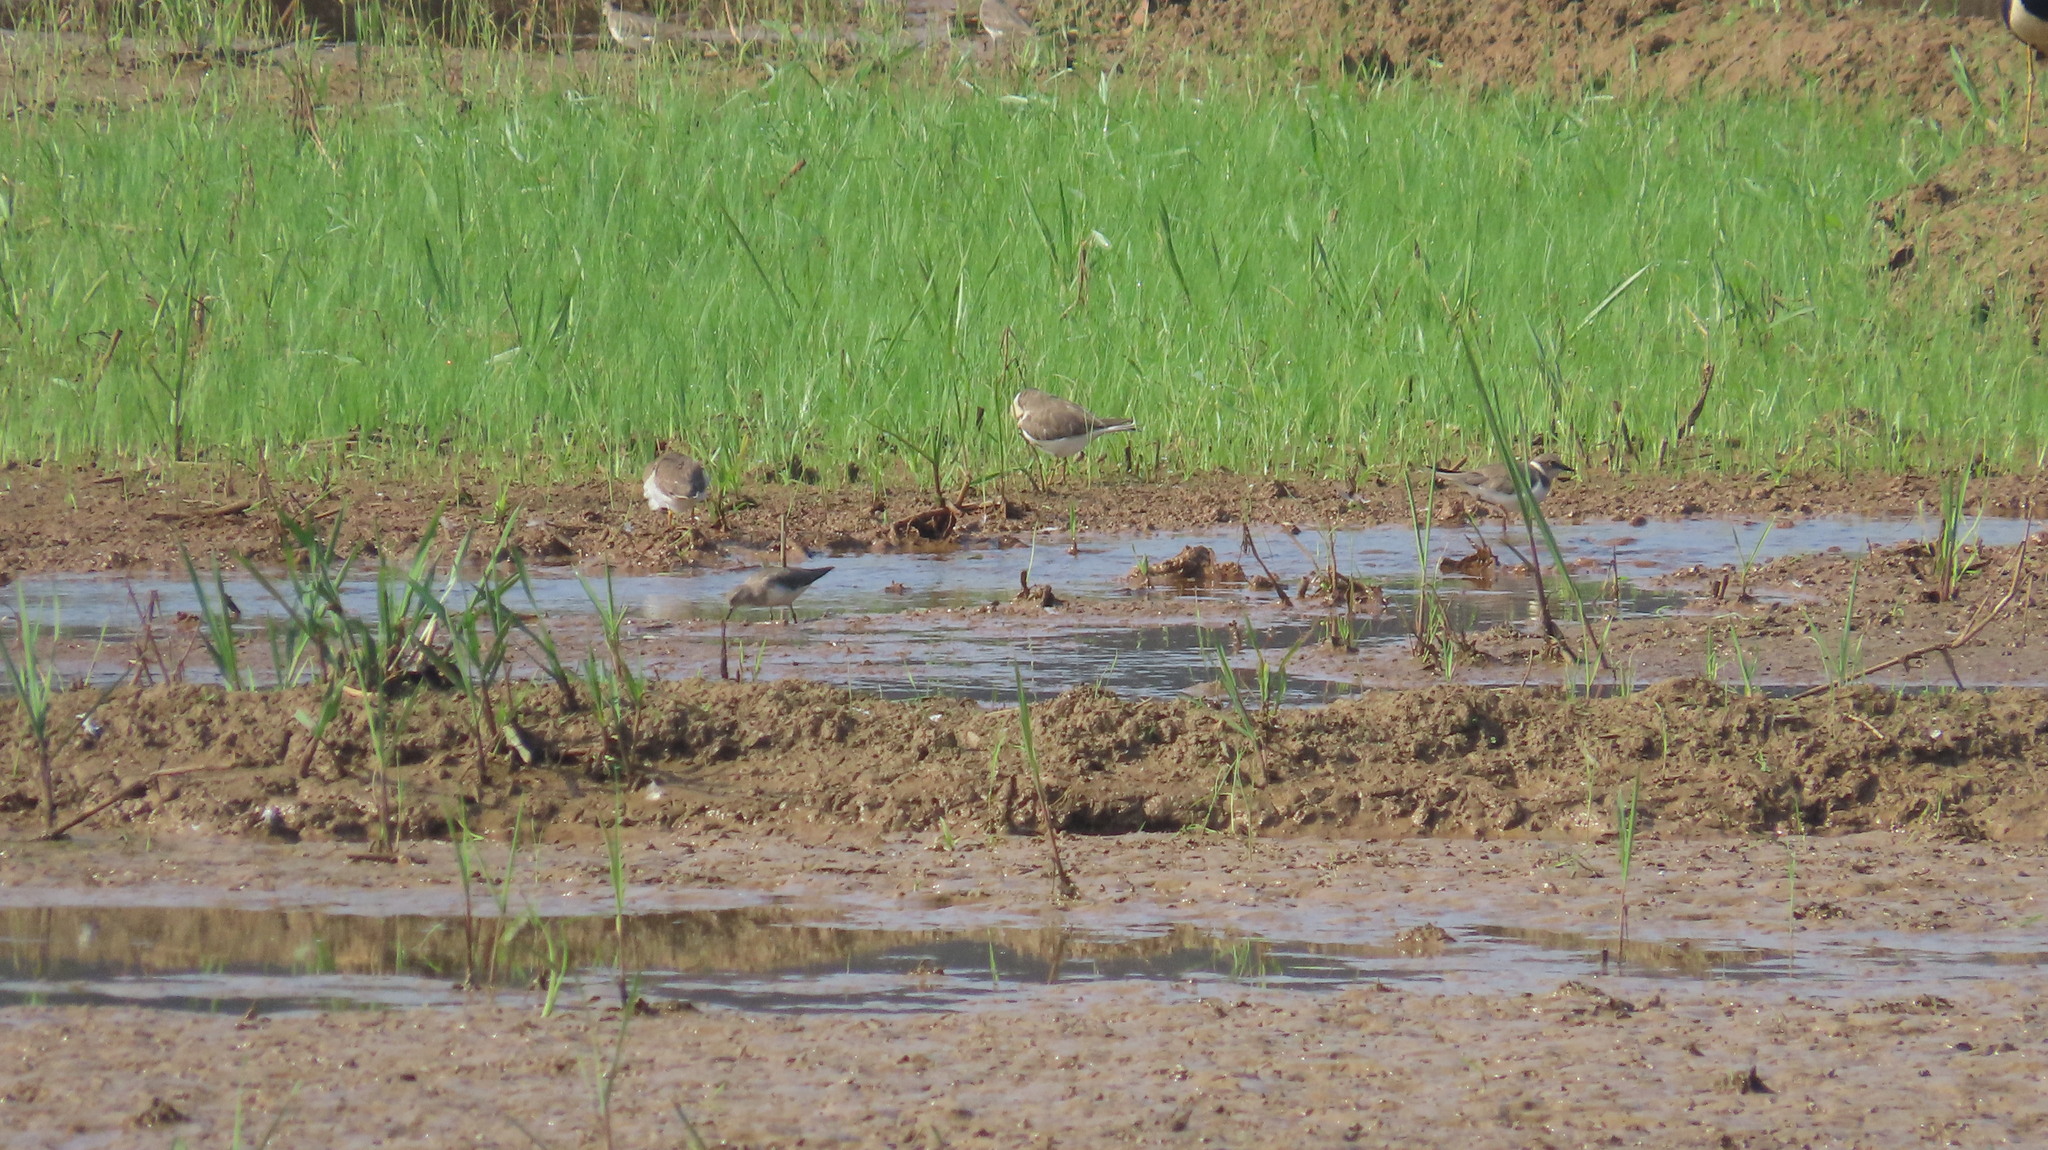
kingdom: Animalia
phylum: Chordata
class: Aves
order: Charadriiformes
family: Charadriidae
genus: Charadrius
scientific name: Charadrius dubius
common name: Little ringed plover
